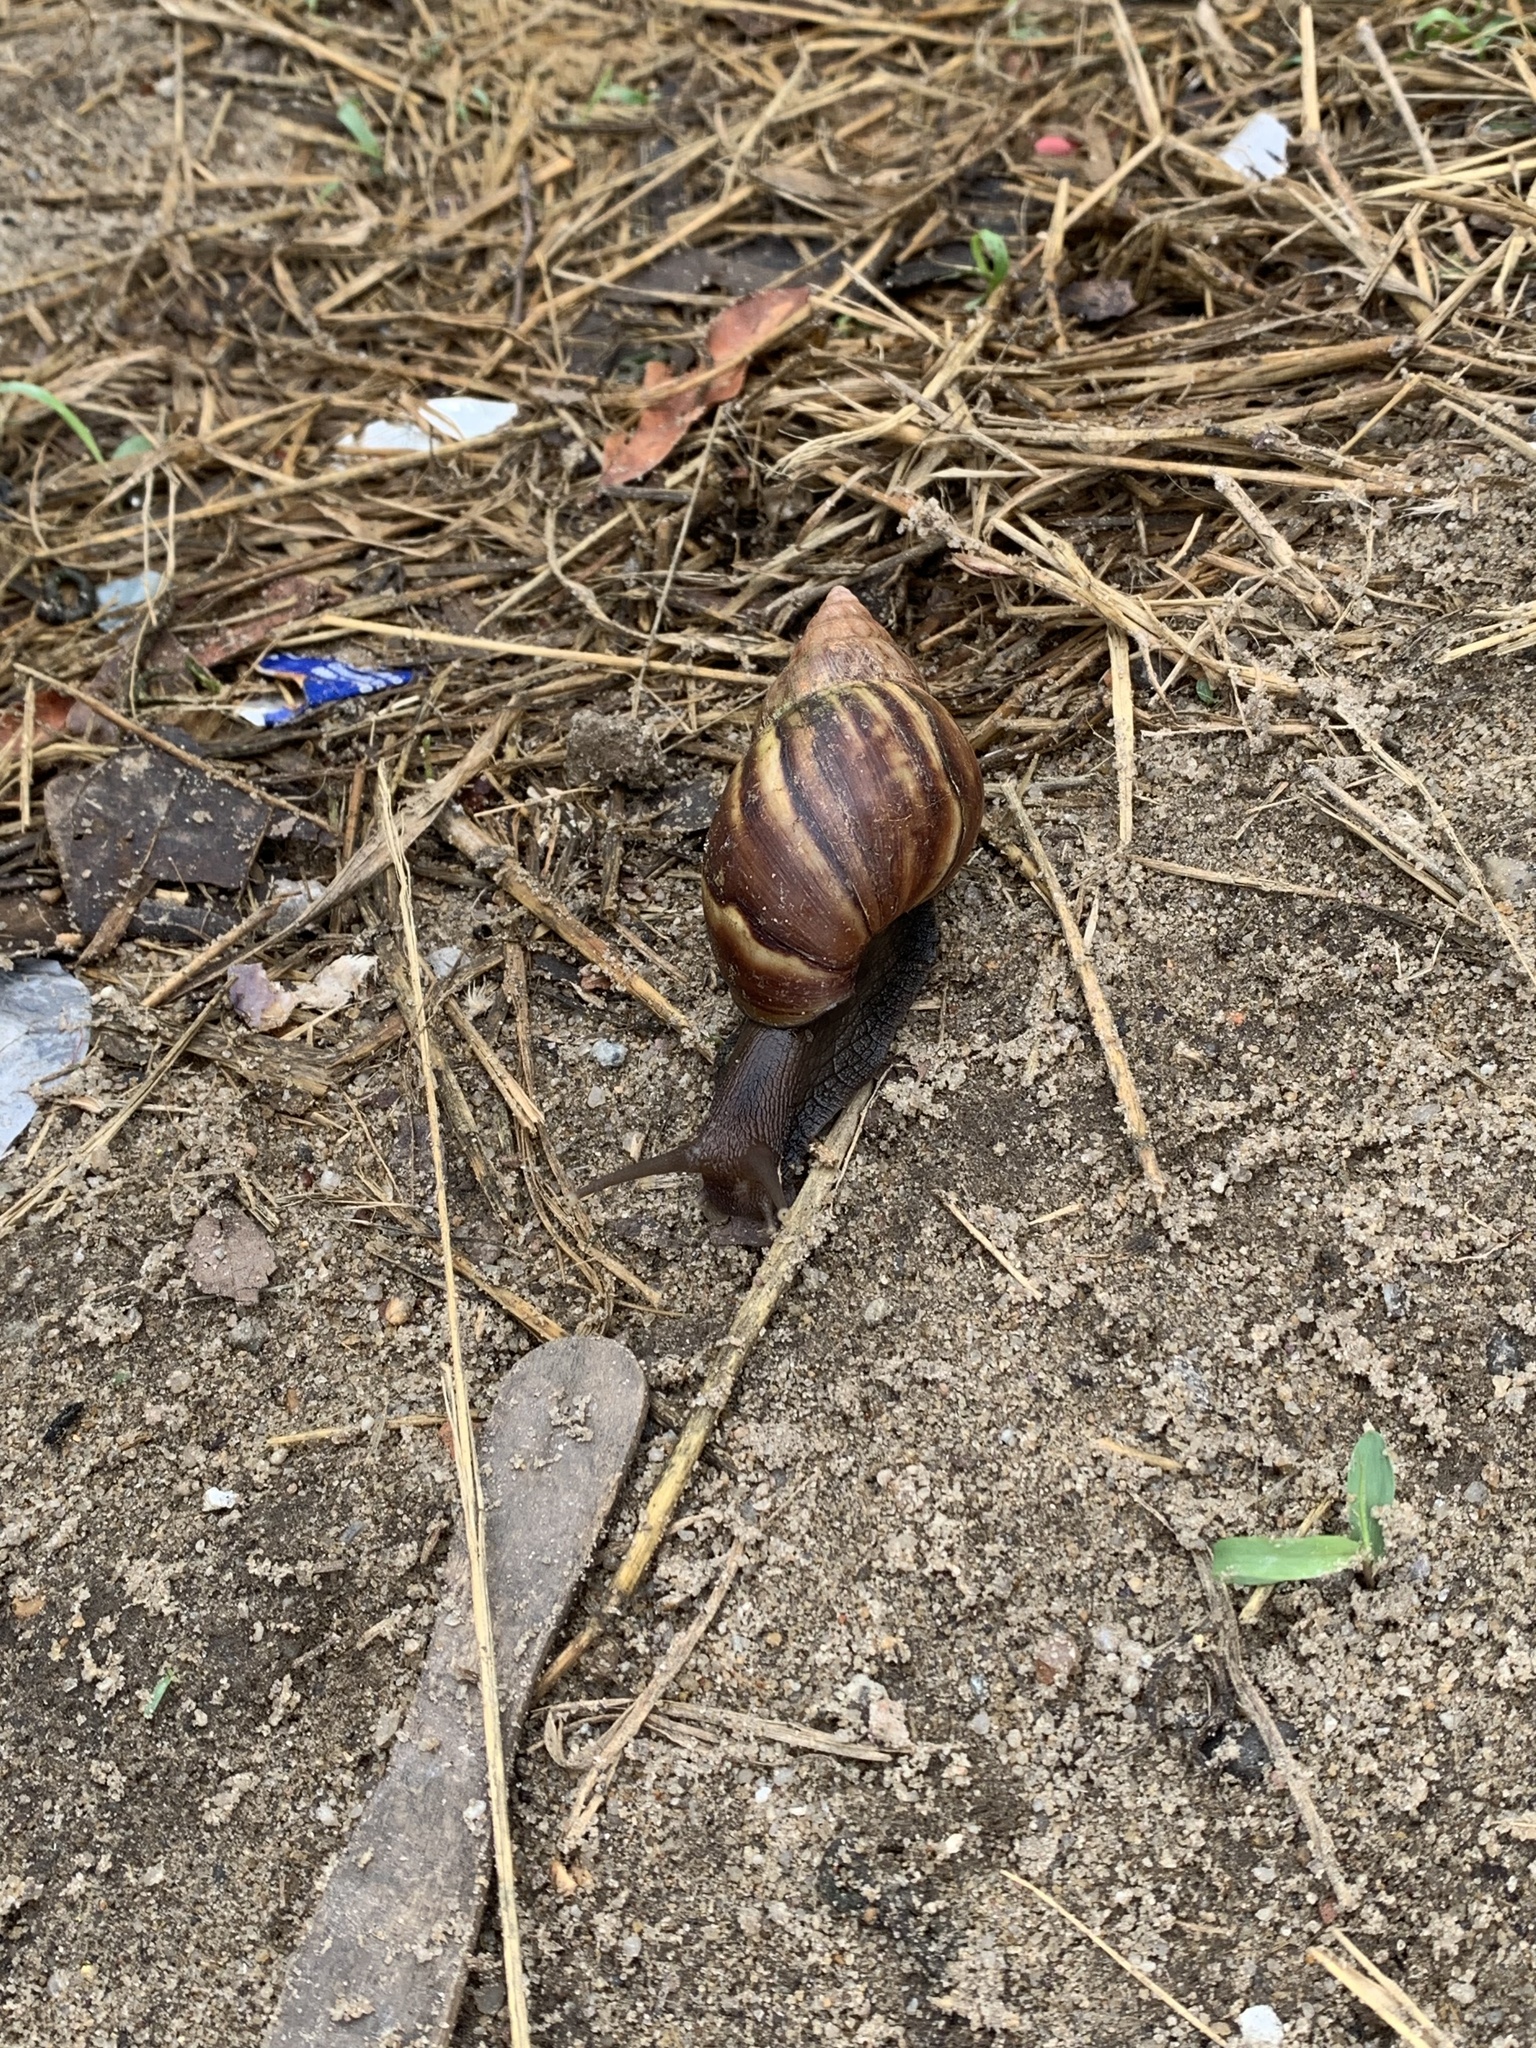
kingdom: Animalia
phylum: Mollusca
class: Gastropoda
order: Stylommatophora
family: Achatinidae
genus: Lissachatina
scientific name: Lissachatina fulica
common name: Giant african snail
